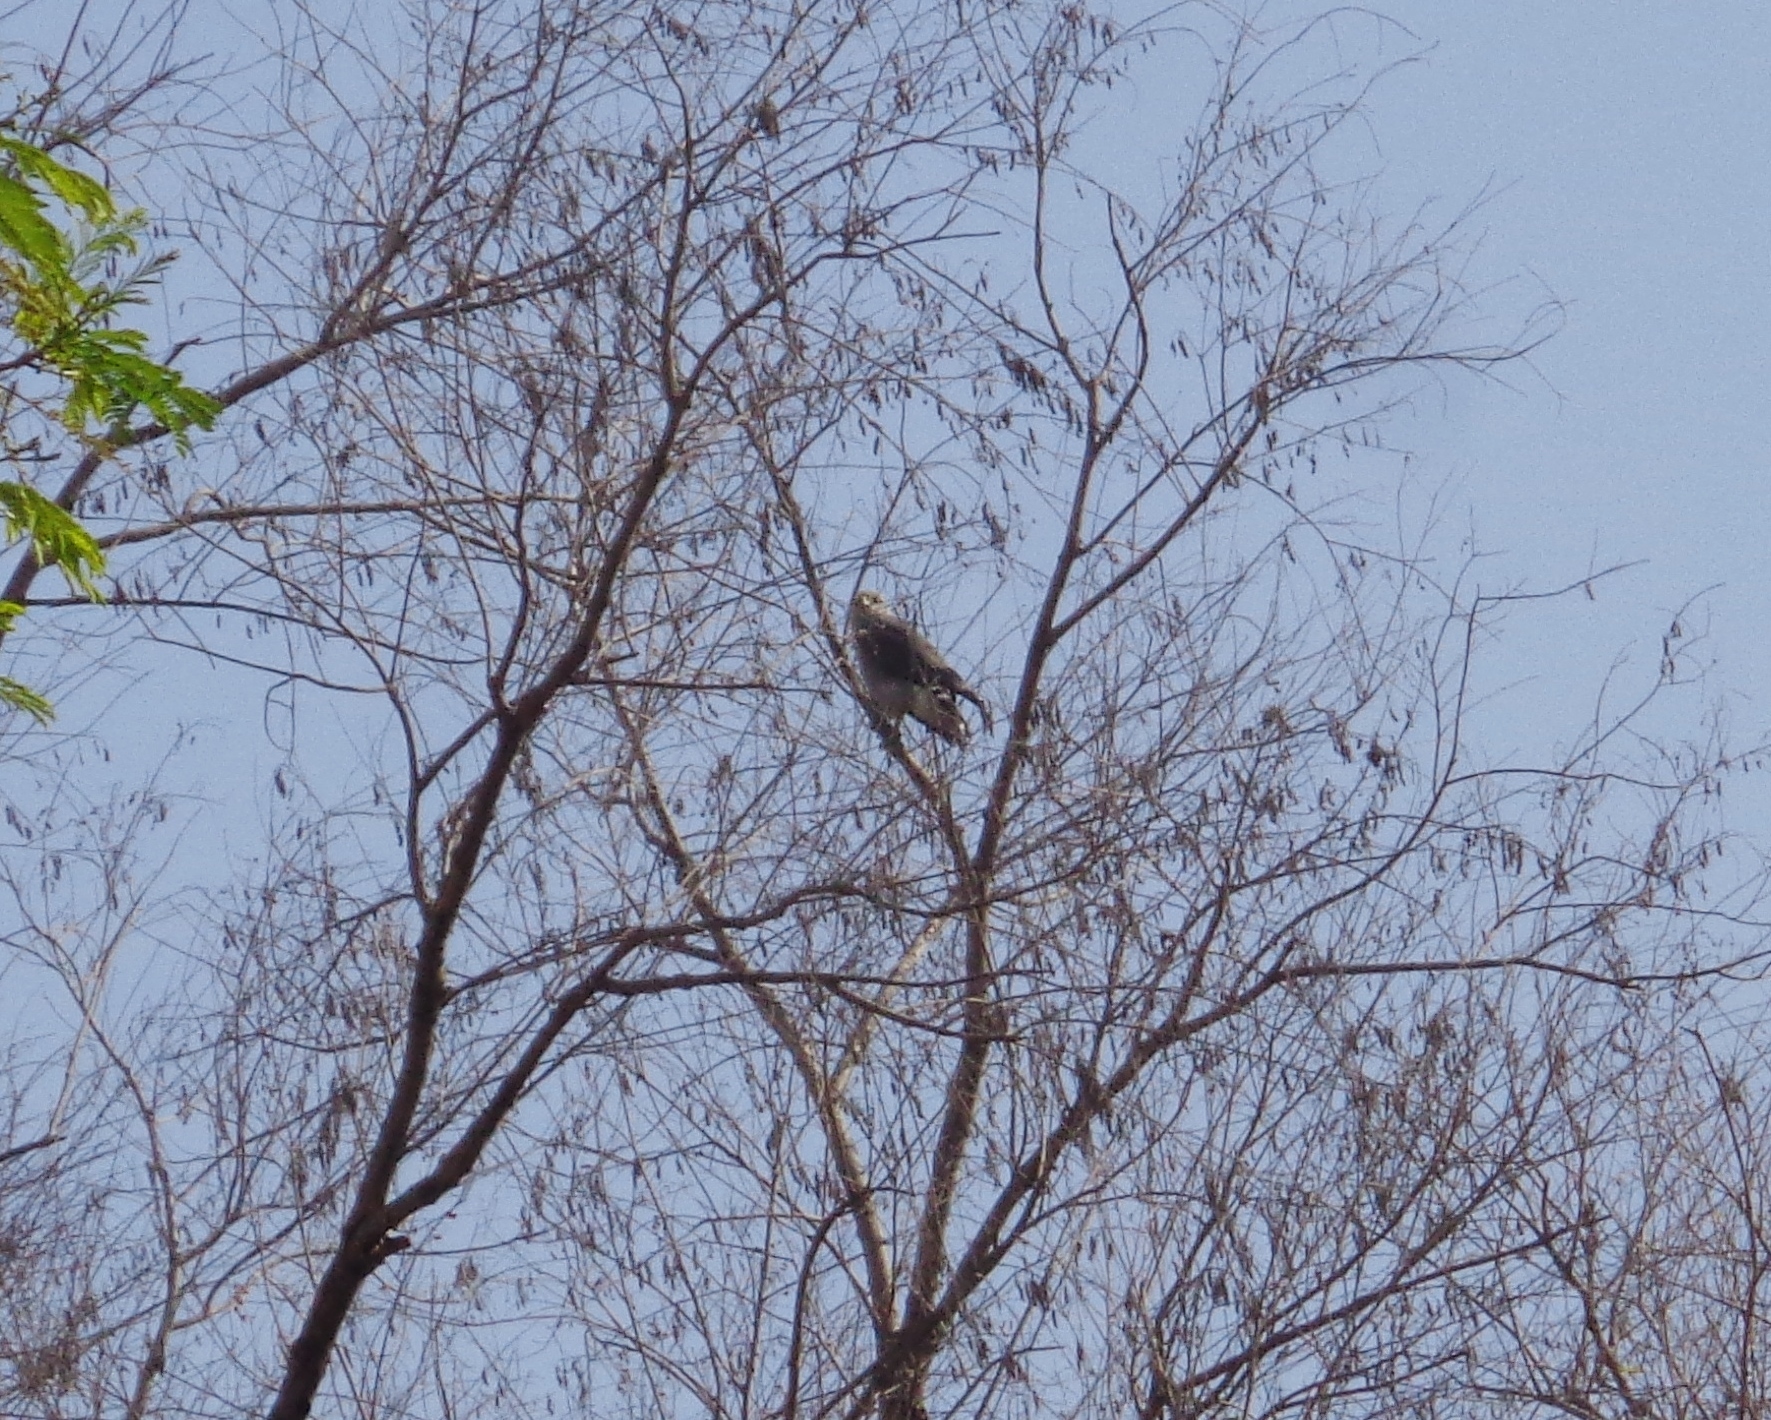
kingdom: Animalia
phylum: Chordata
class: Aves
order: Accipitriformes
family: Accipitridae
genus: Buteo
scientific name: Buteo nitidus
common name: Grey-lined hawk
